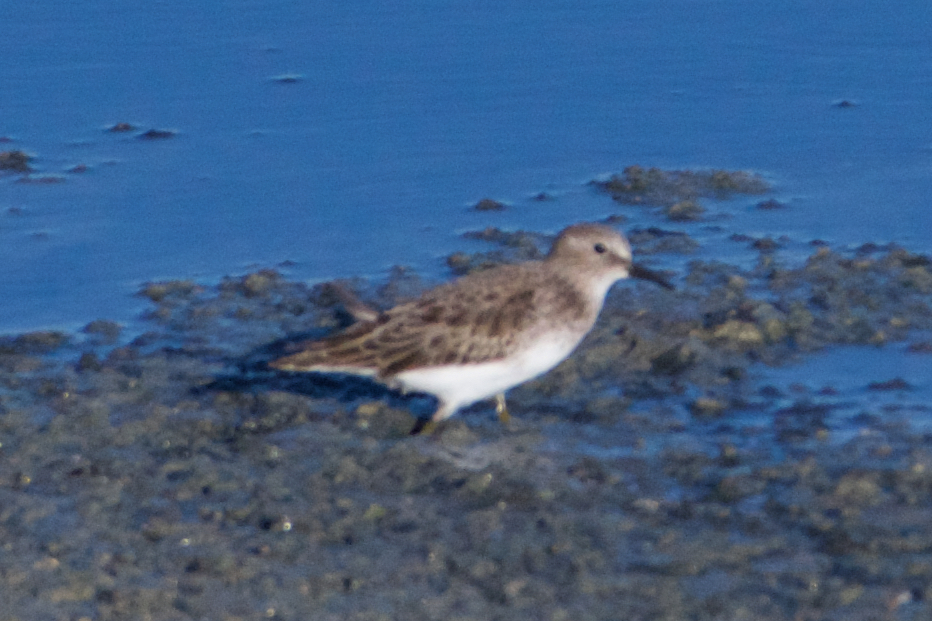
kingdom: Animalia
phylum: Chordata
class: Aves
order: Charadriiformes
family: Scolopacidae
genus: Calidris
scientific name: Calidris minutilla
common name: Least sandpiper
